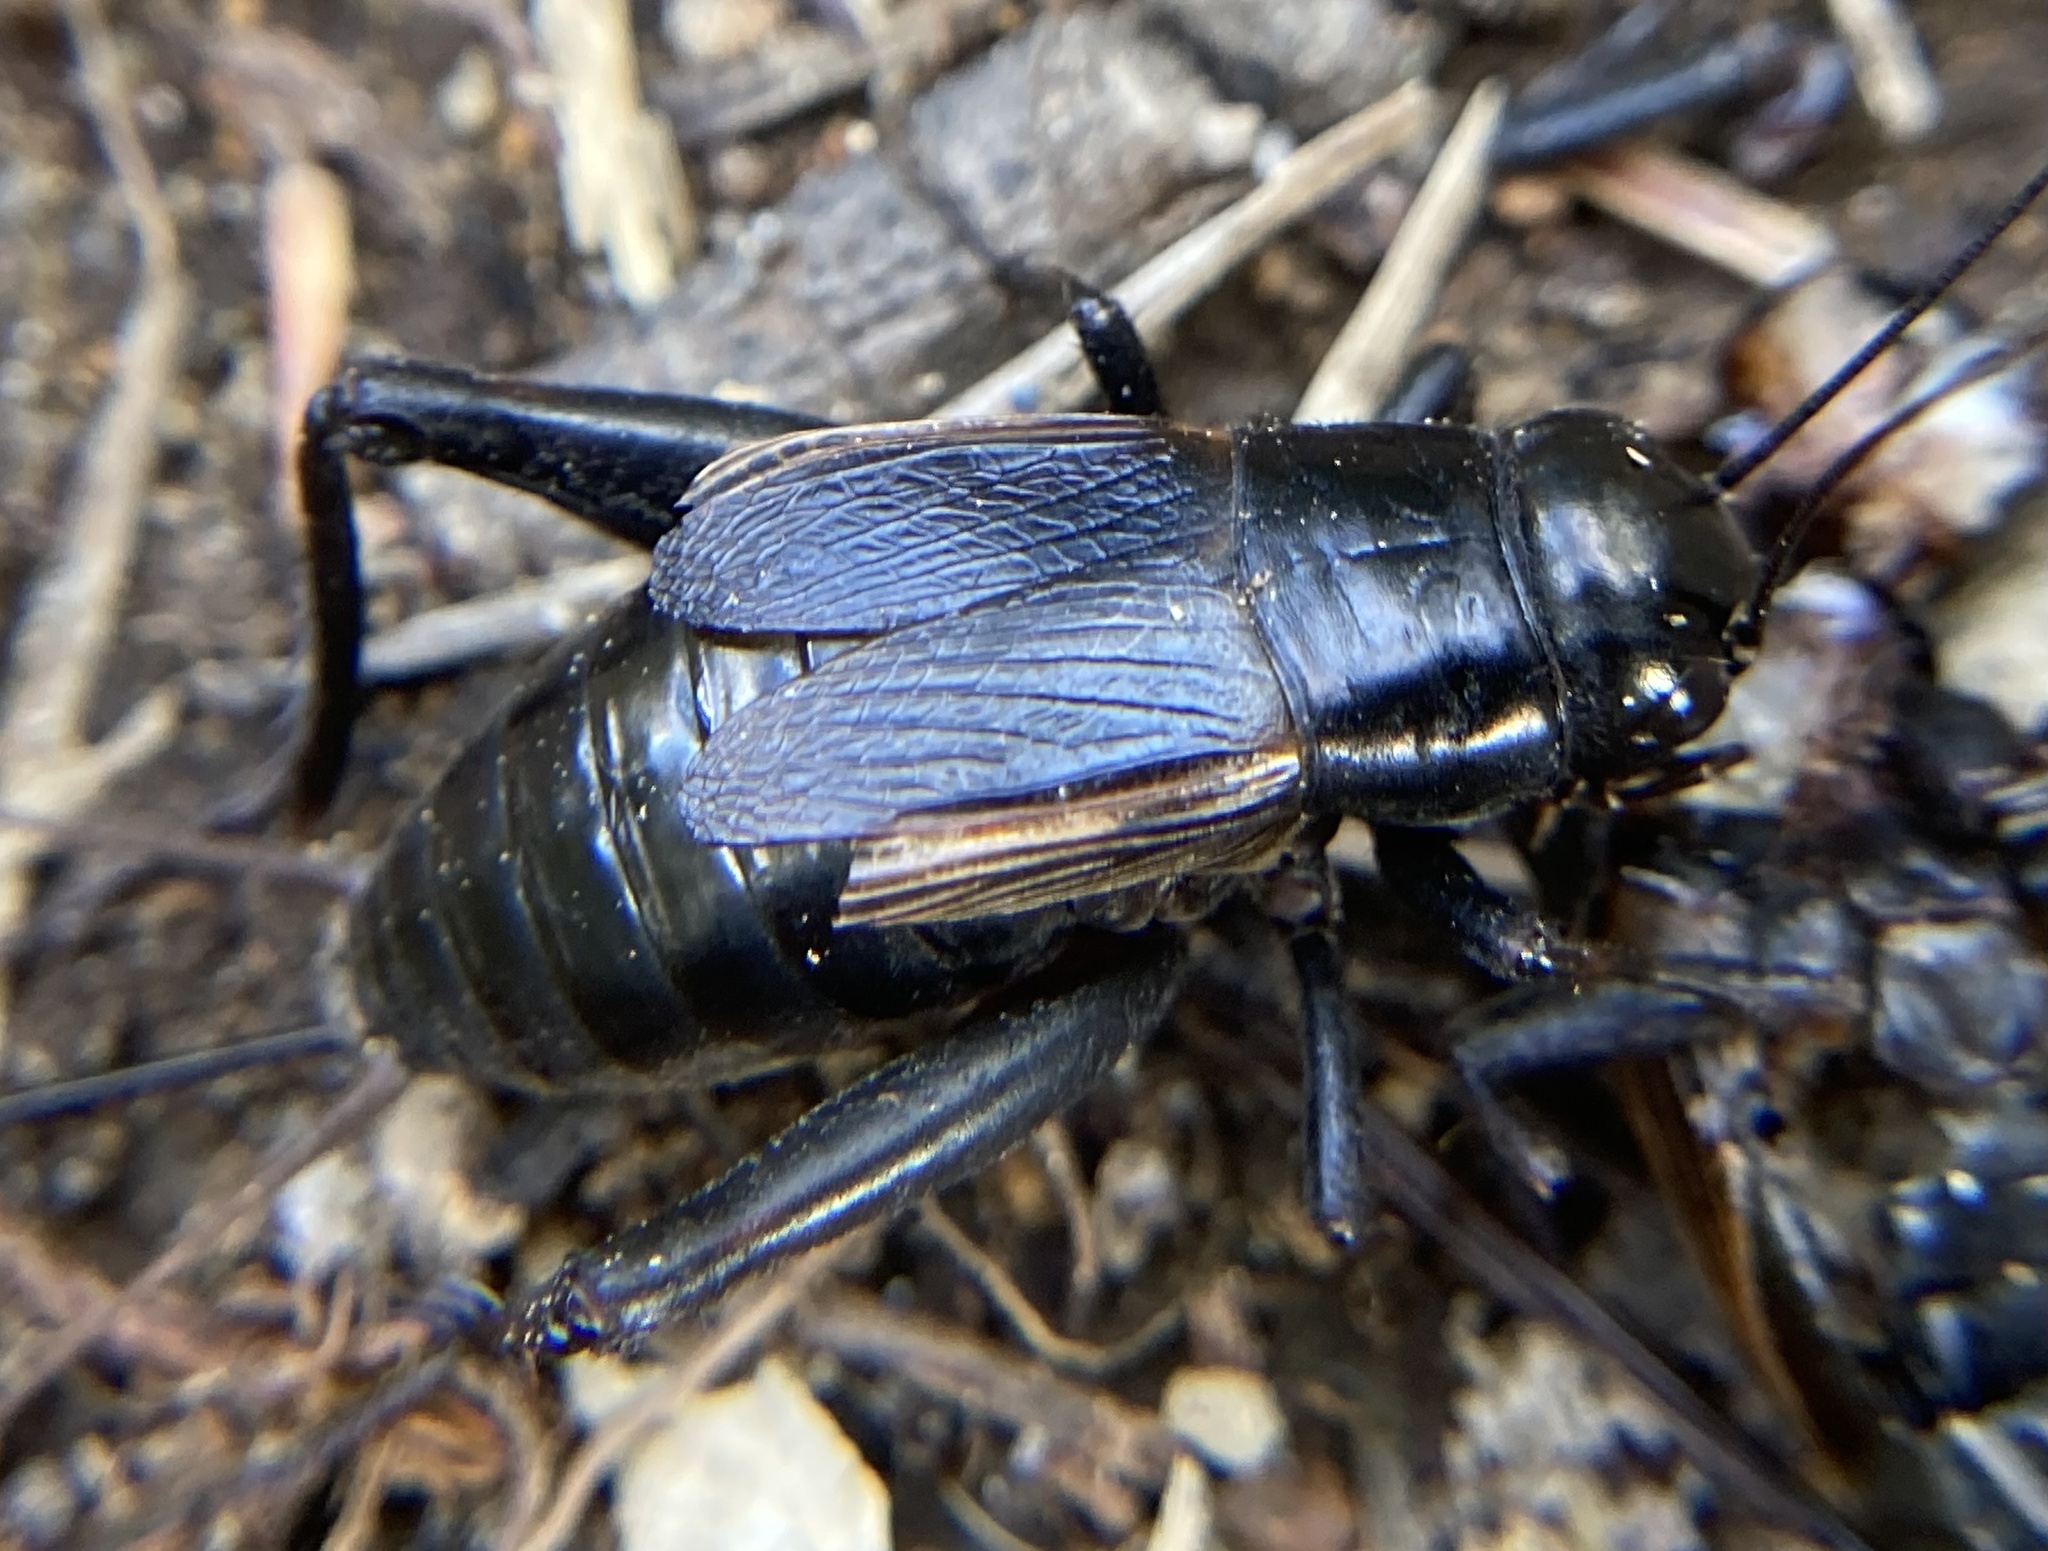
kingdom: Animalia
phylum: Arthropoda
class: Insecta
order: Orthoptera
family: Gryllidae
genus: Gryllus
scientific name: Gryllus pennsylvanicus
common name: Fall field cricket
